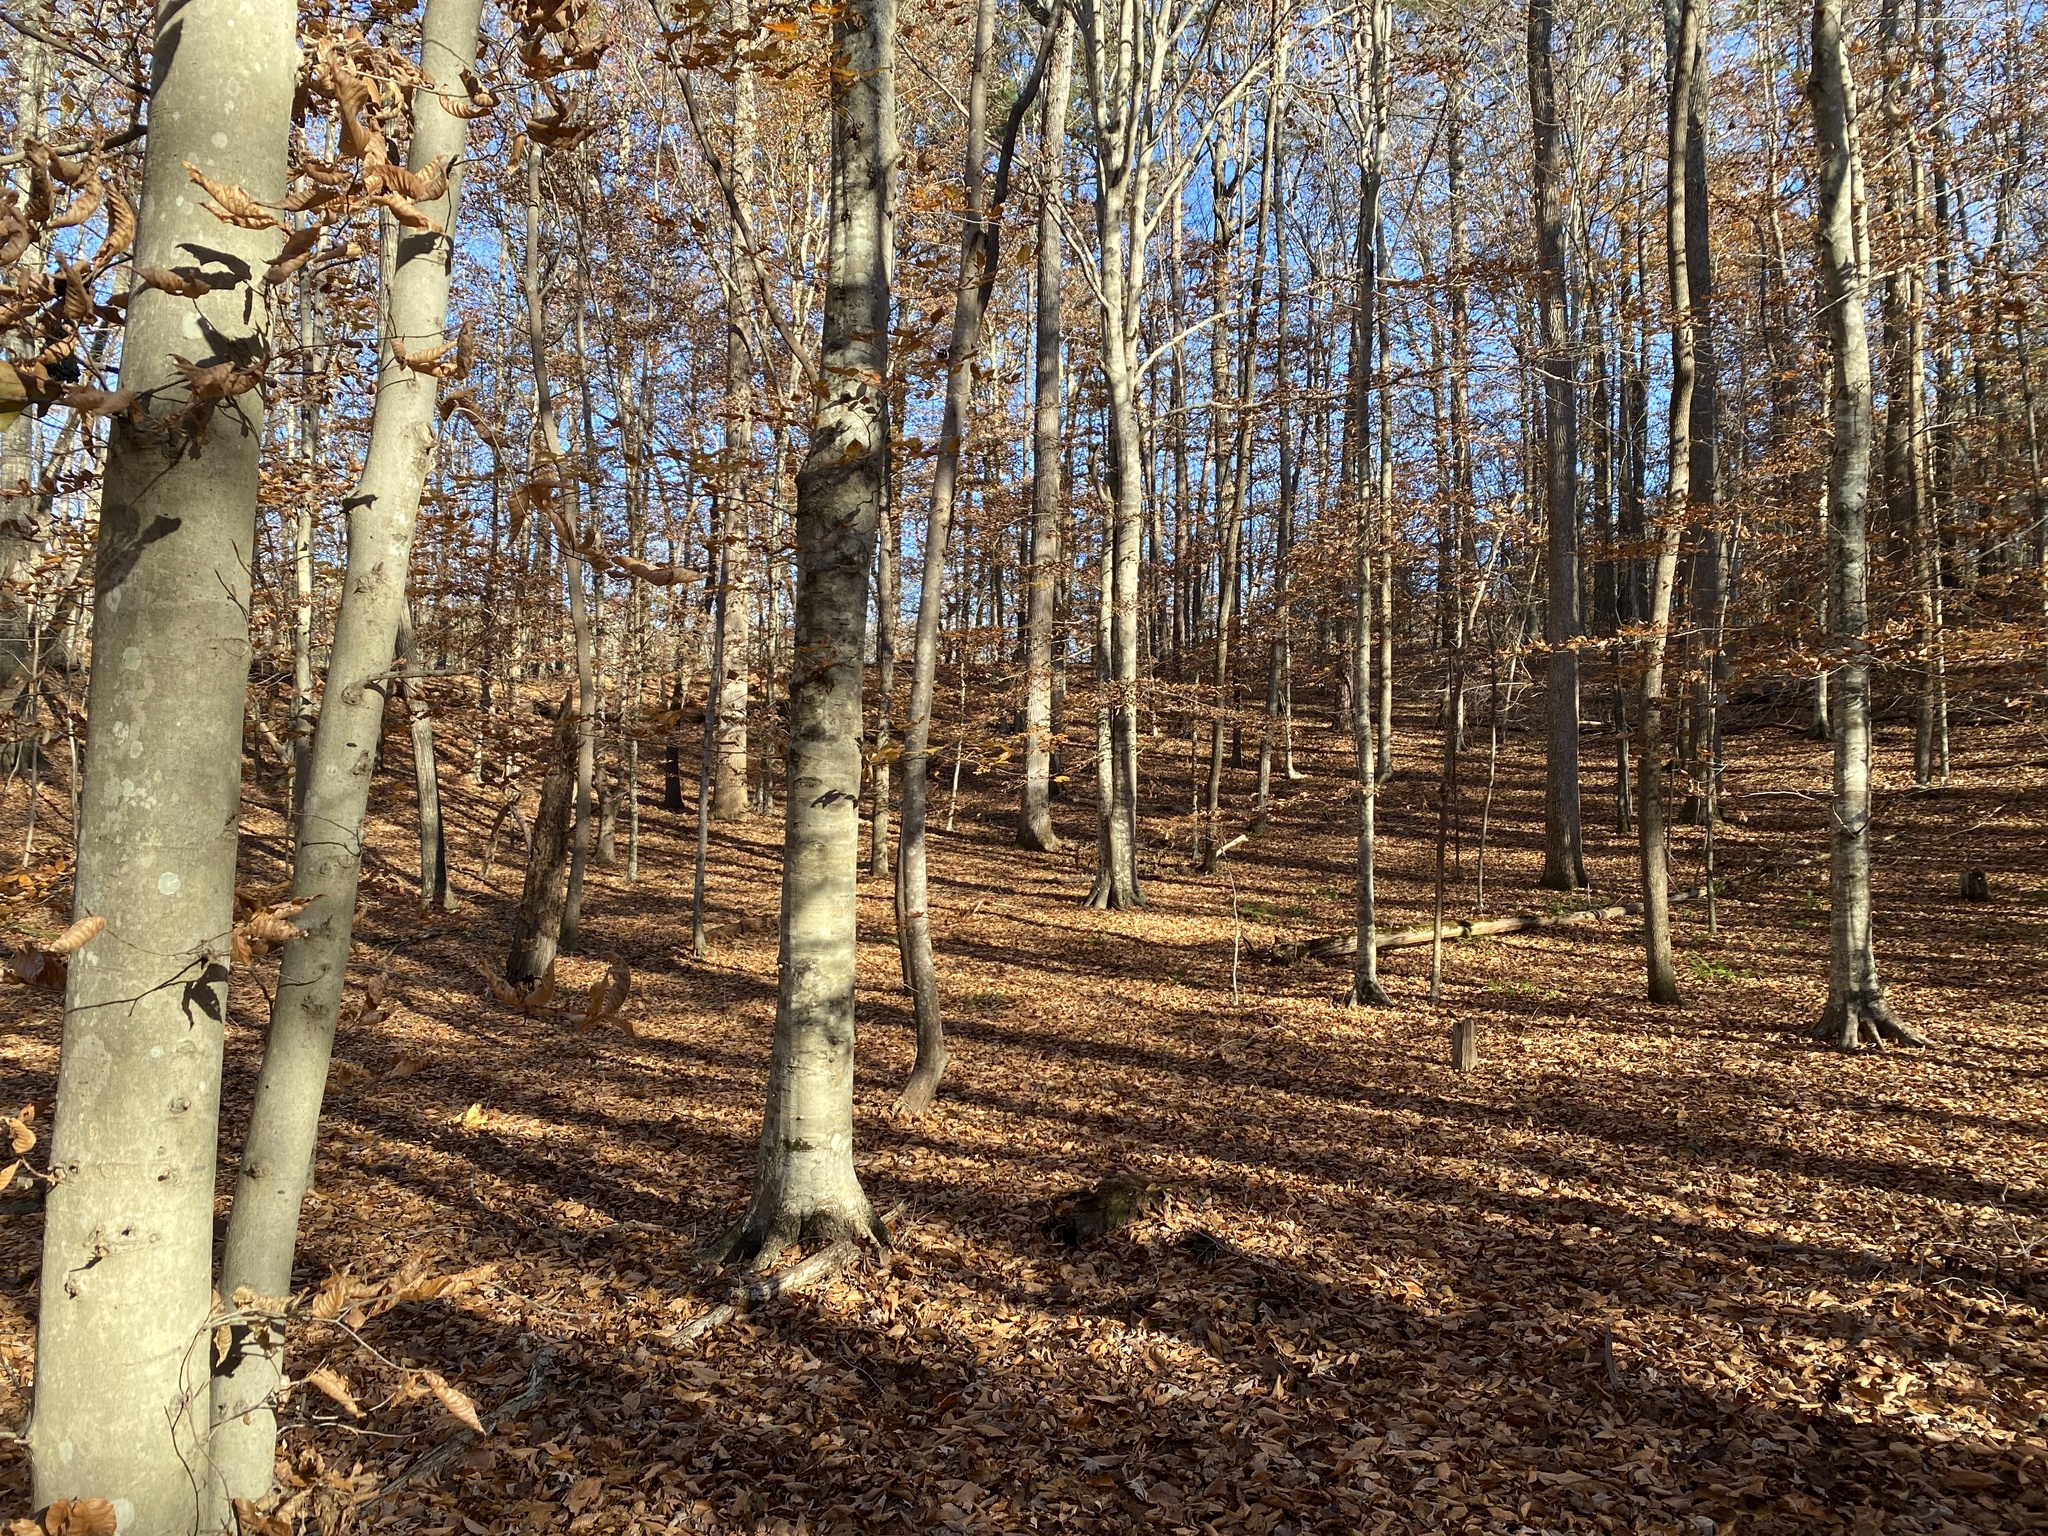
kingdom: Plantae
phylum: Tracheophyta
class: Magnoliopsida
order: Fagales
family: Fagaceae
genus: Fagus
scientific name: Fagus grandifolia
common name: American beech
